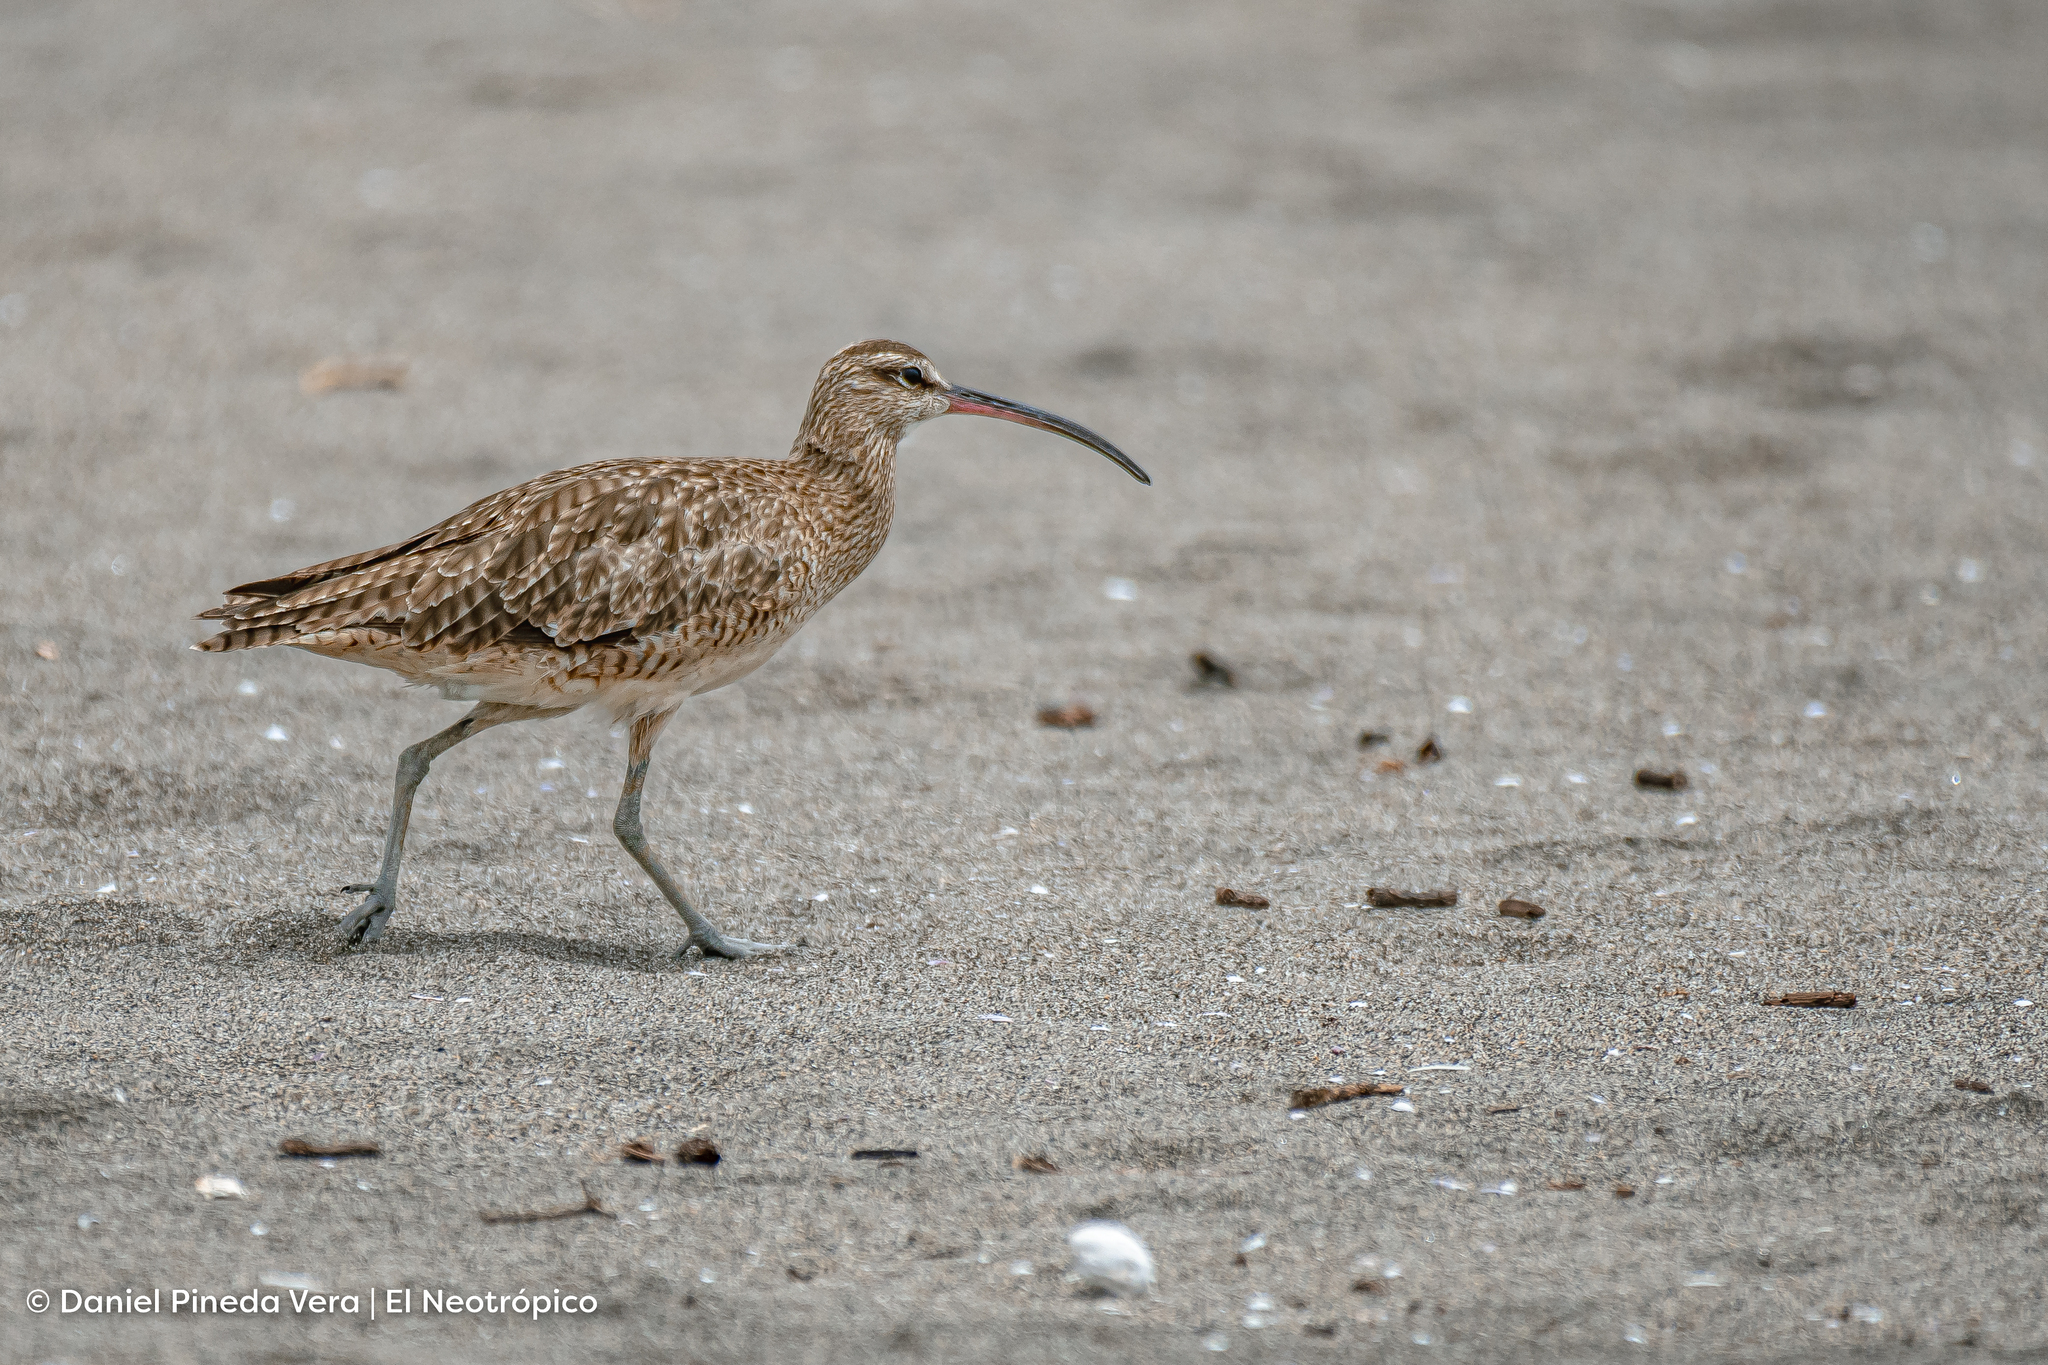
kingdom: Animalia
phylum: Chordata
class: Aves
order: Charadriiformes
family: Scolopacidae
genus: Numenius
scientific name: Numenius phaeopus
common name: Whimbrel
